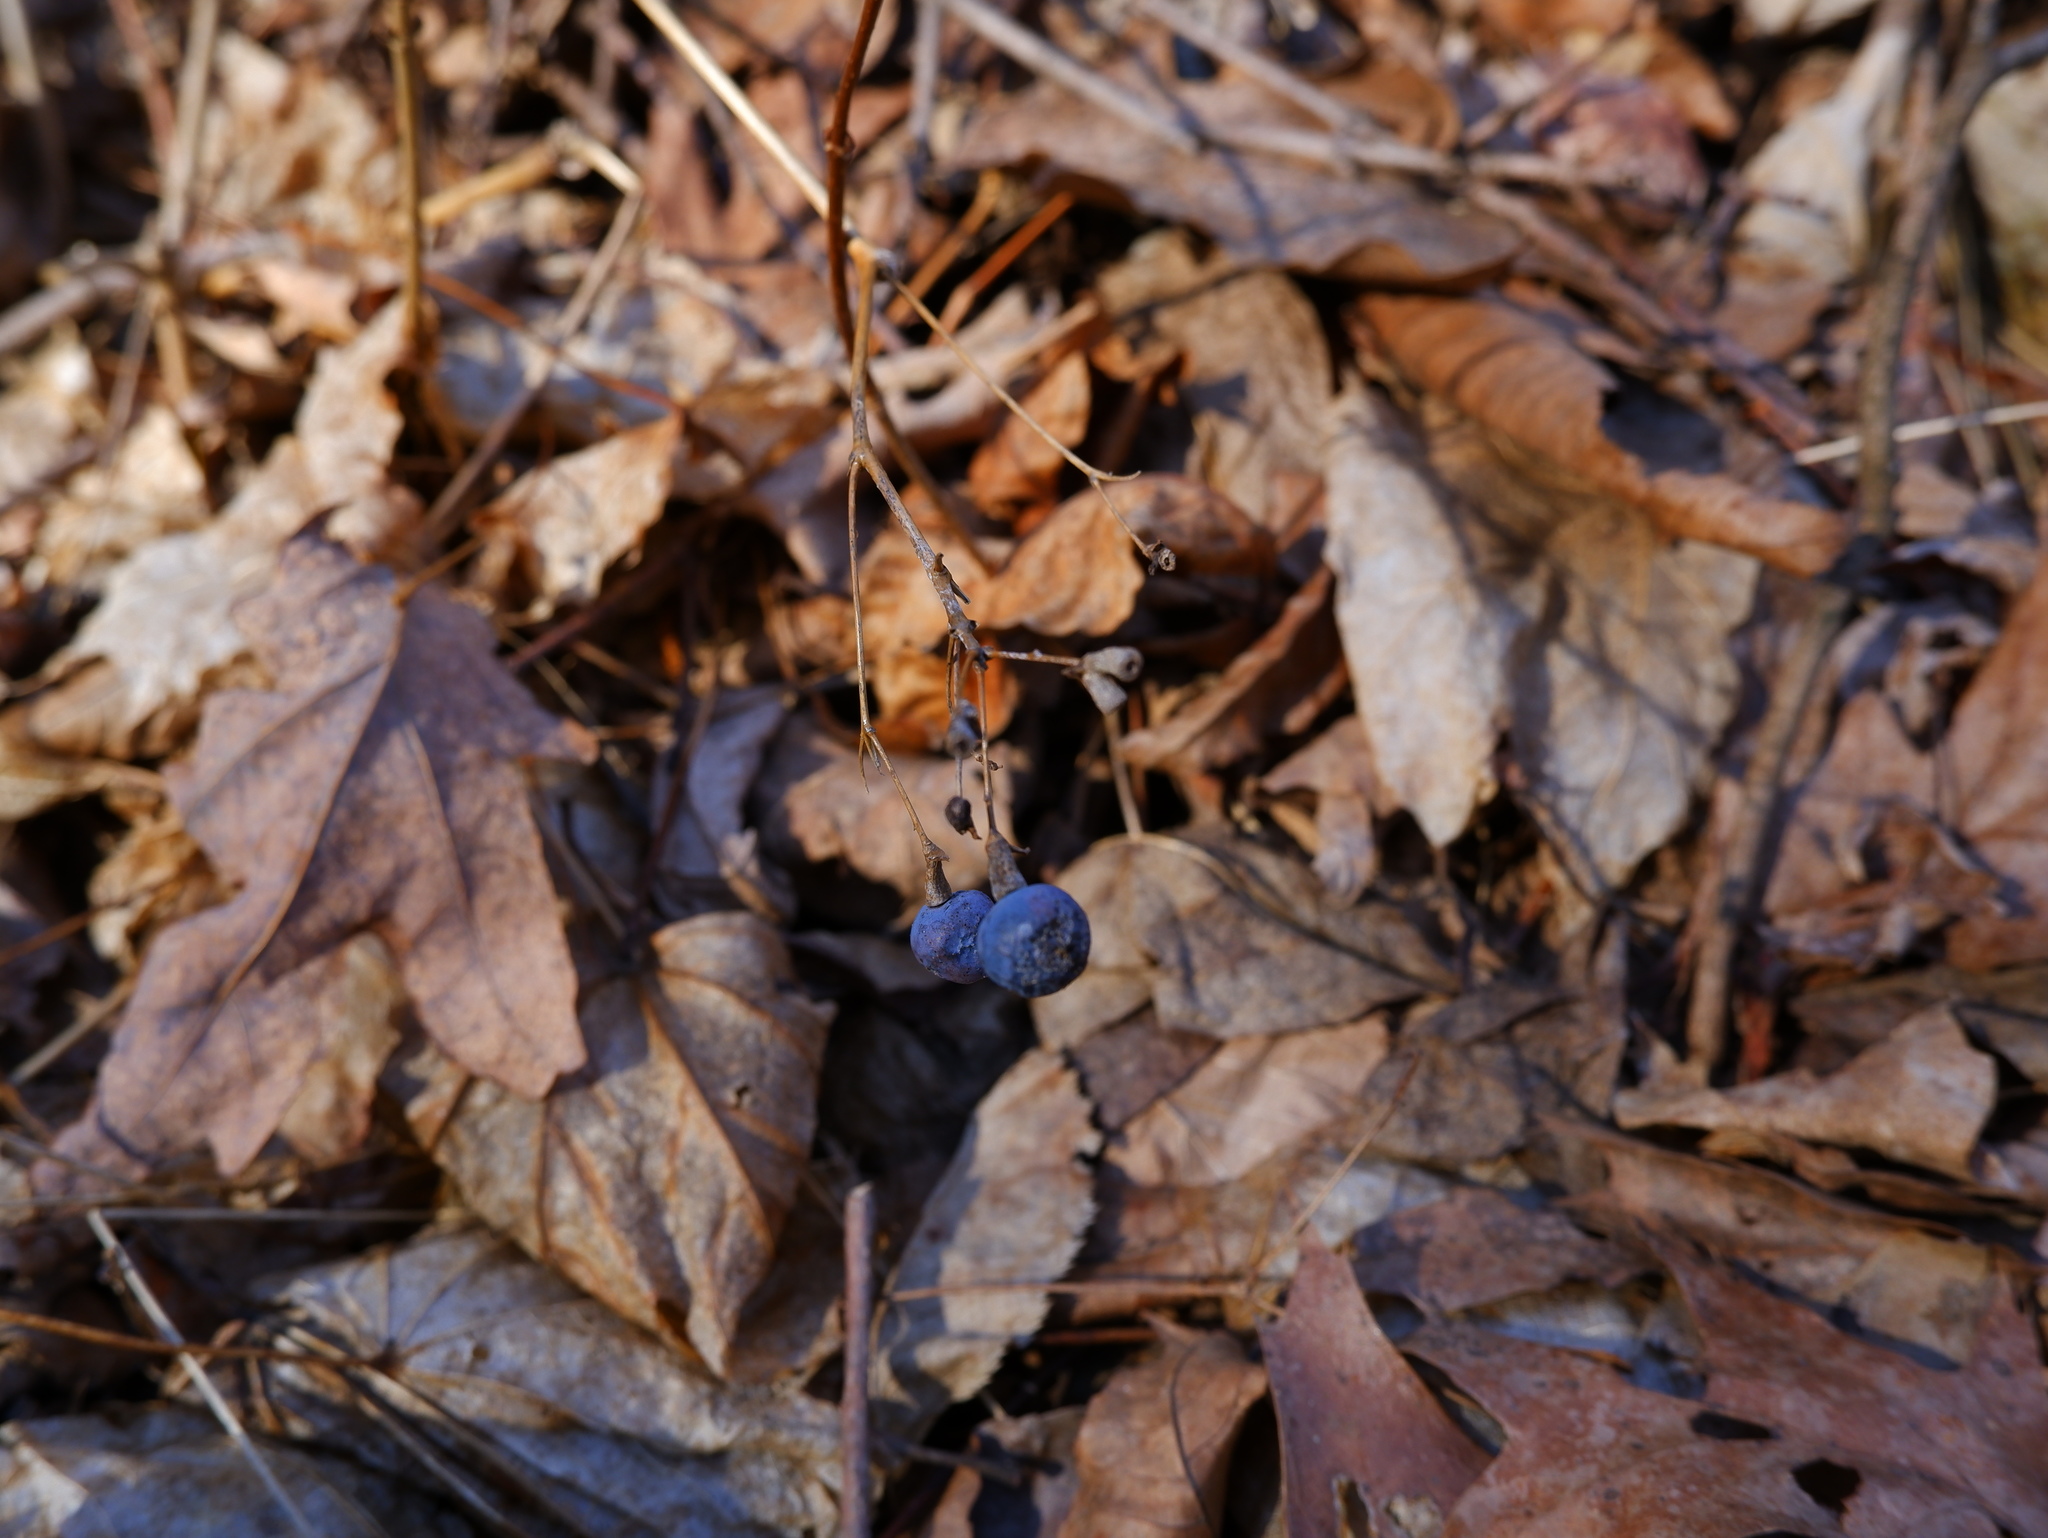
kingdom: Plantae
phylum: Tracheophyta
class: Magnoliopsida
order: Ranunculales
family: Berberidaceae
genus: Caulophyllum
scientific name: Caulophyllum thalictroides
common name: Blue cohosh
